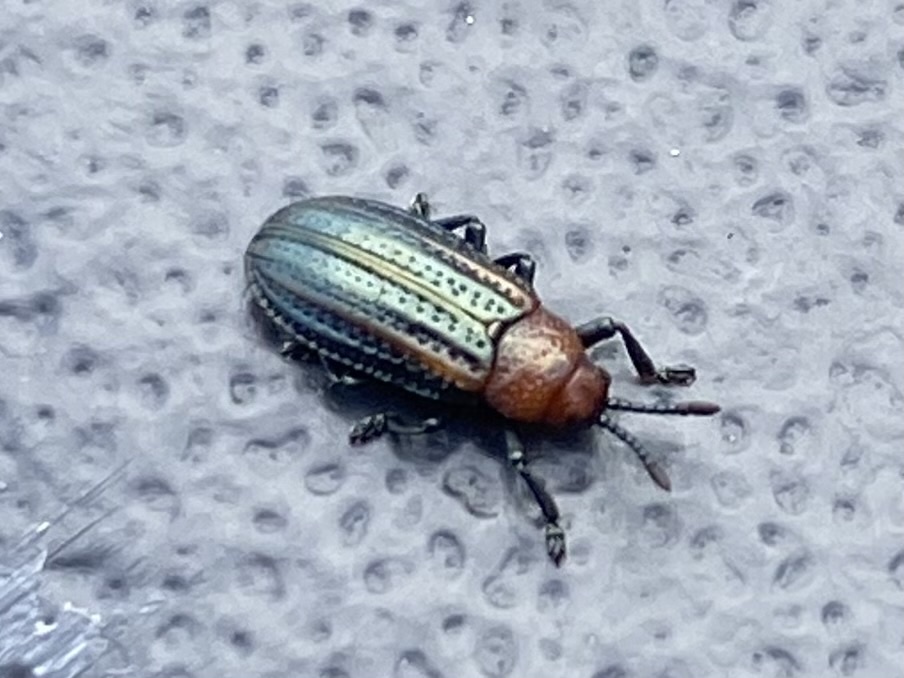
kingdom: Animalia
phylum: Arthropoda
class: Insecta
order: Coleoptera
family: Chrysomelidae
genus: Microrhopala
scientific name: Microrhopala vittata
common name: Goldenrod leaf miner beetle
